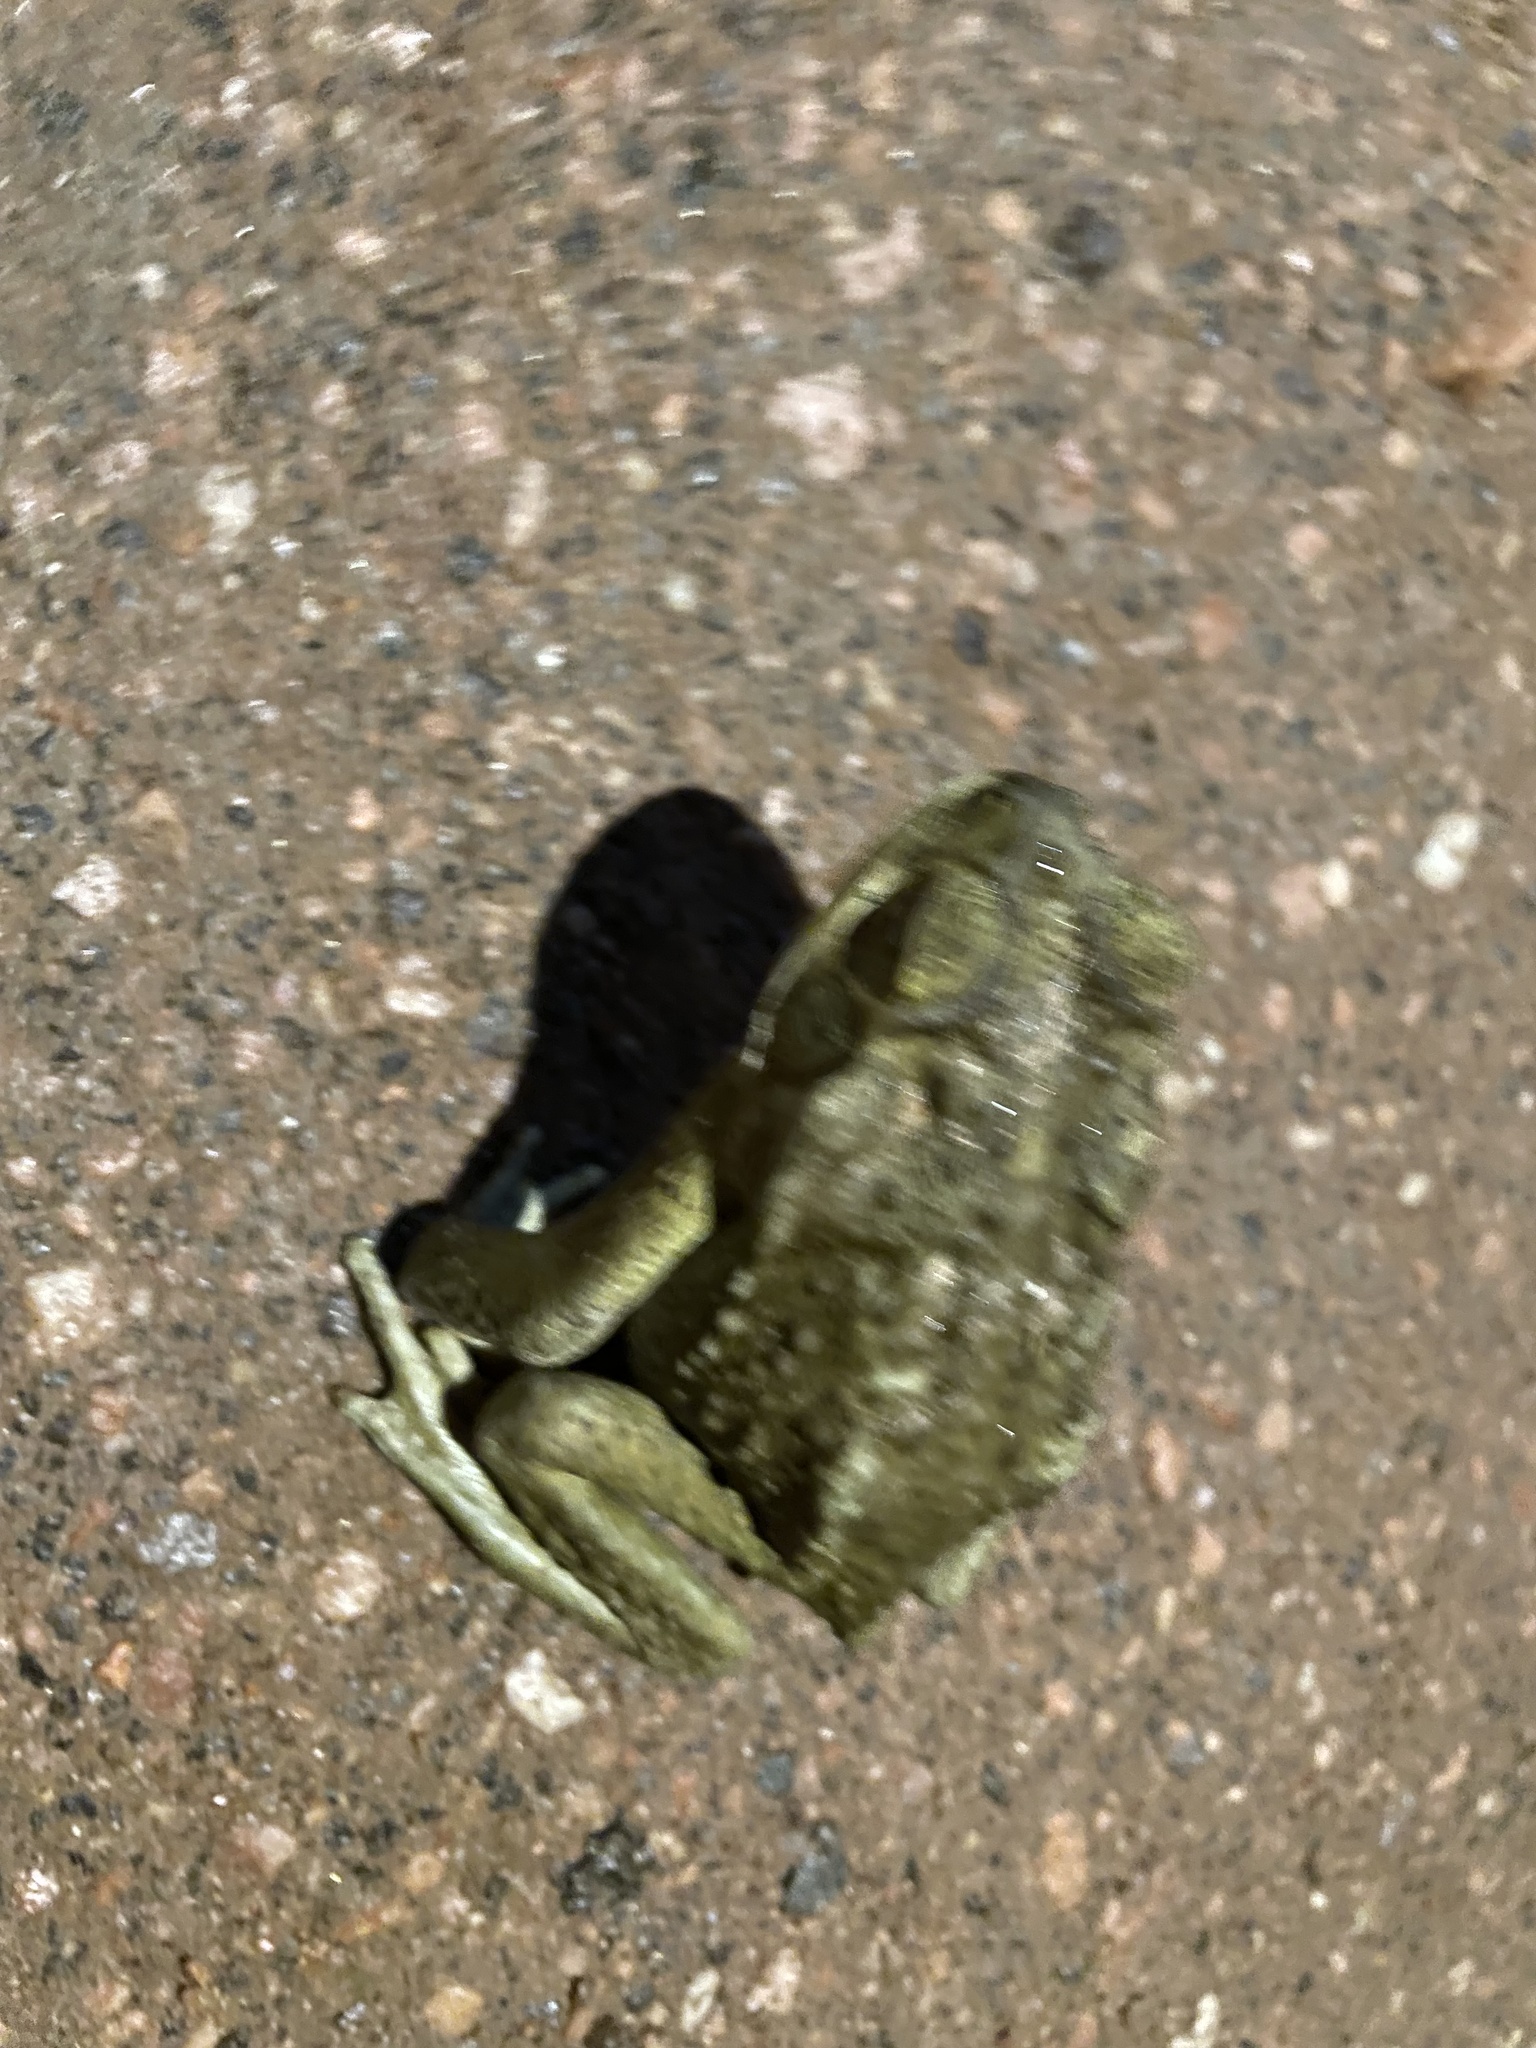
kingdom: Animalia
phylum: Chordata
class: Amphibia
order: Anura
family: Bufonidae
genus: Rhinella
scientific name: Rhinella arenarum
